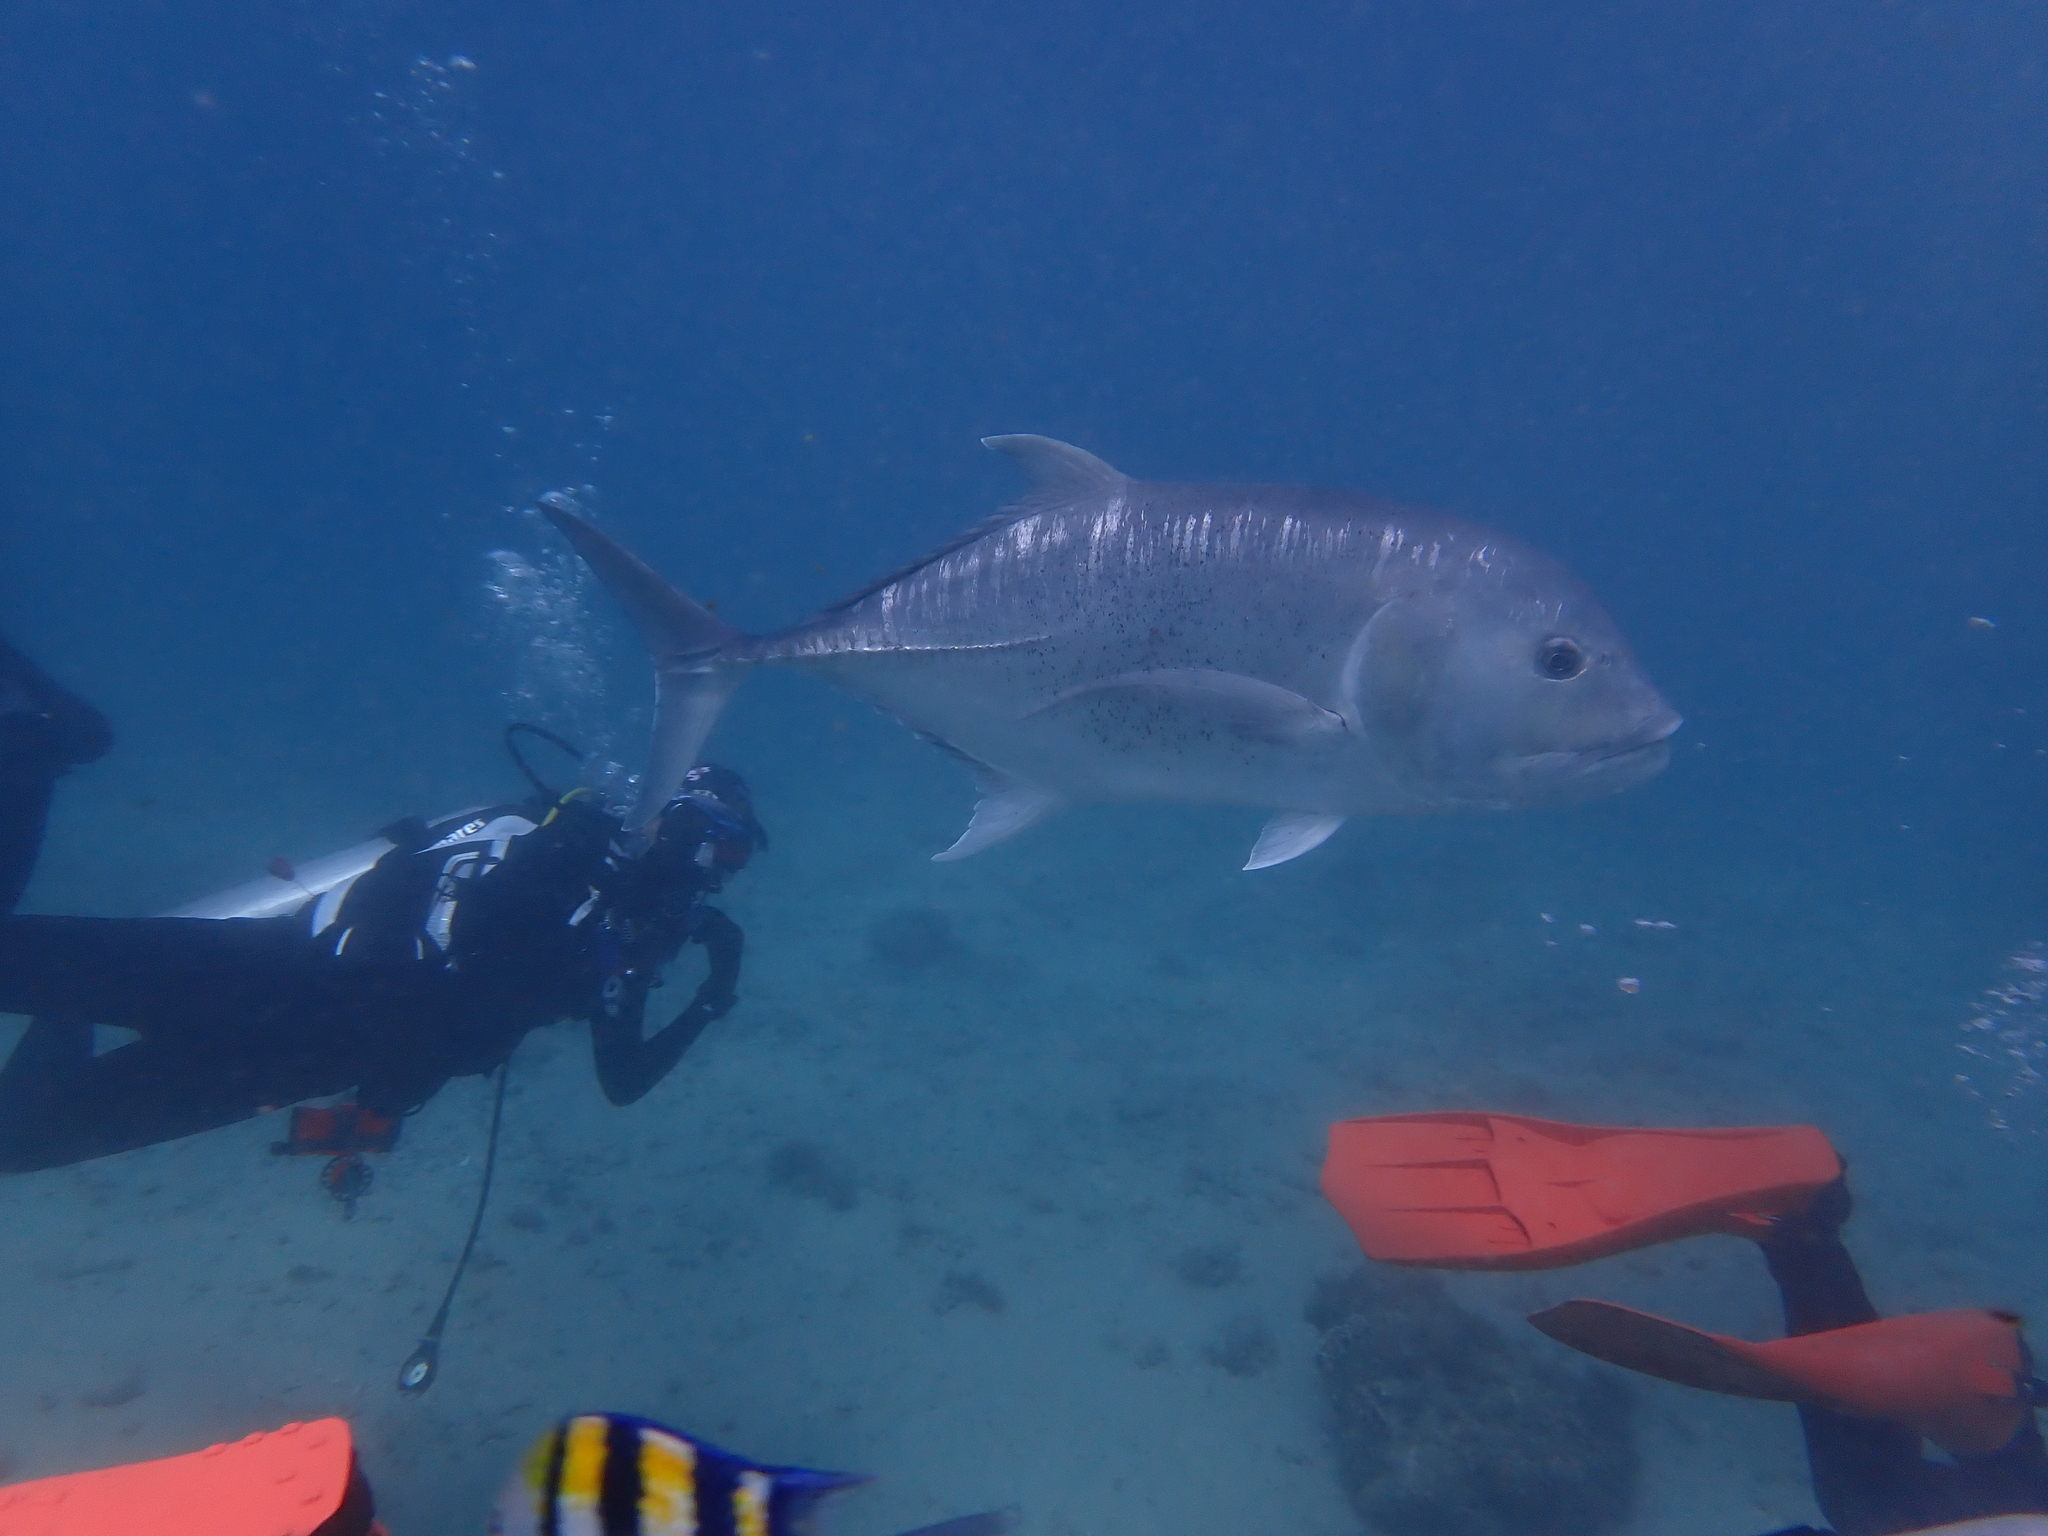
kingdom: Animalia
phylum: Chordata
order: Perciformes
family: Carangidae
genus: Caranx
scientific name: Caranx ignobilis
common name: Giant trevally
